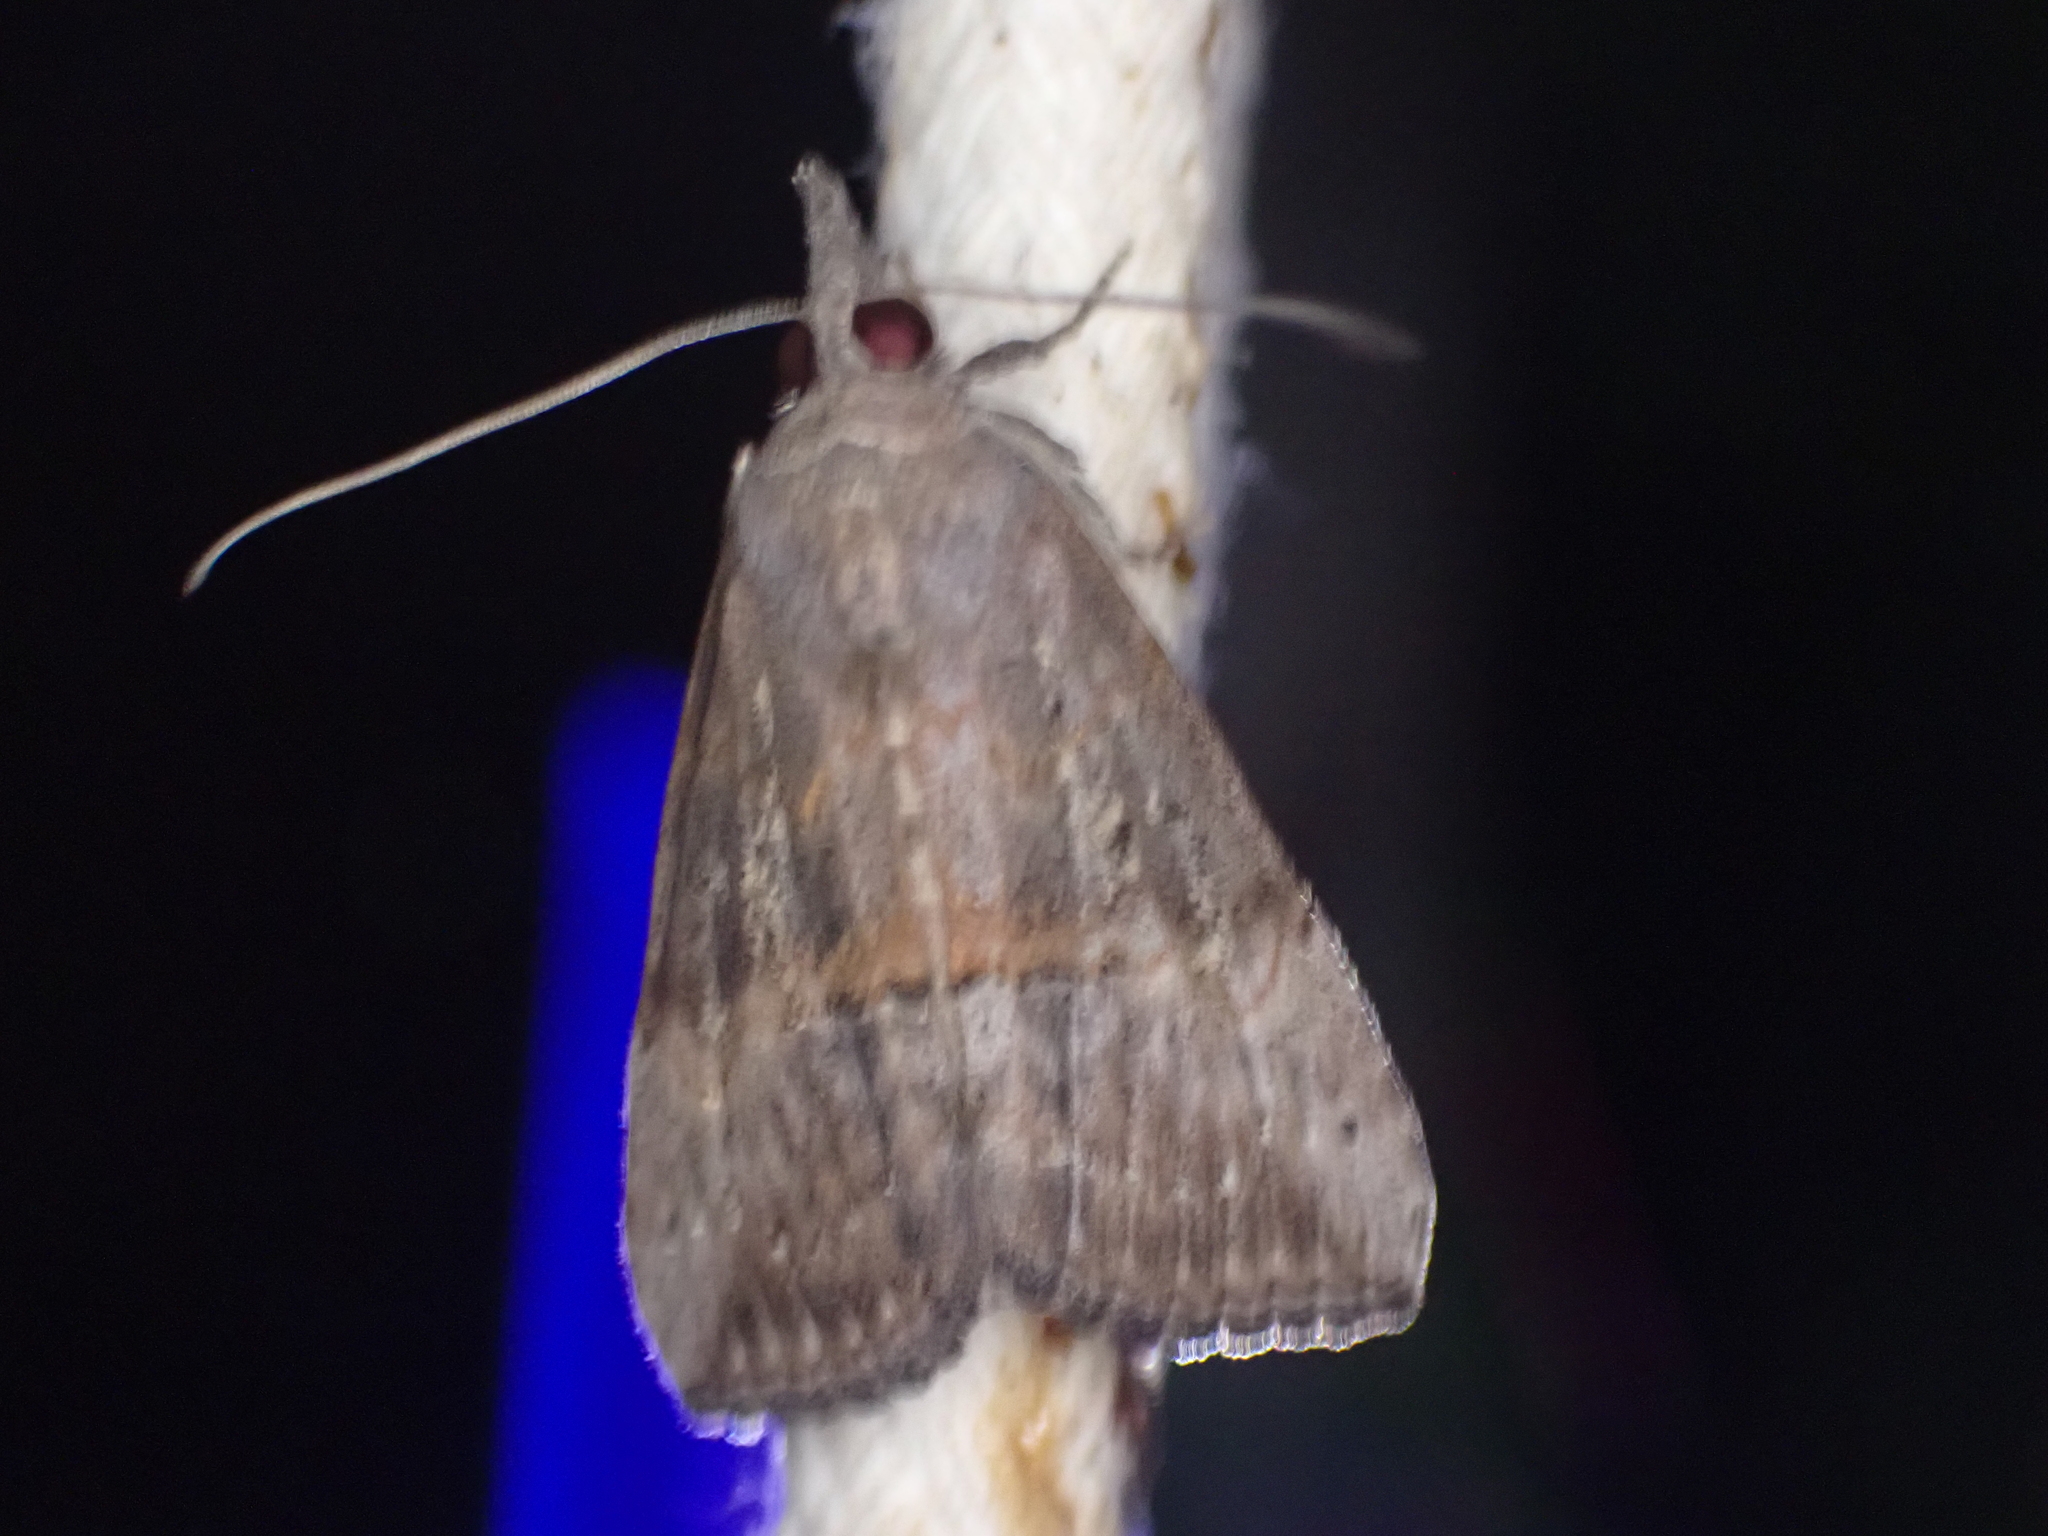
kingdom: Animalia
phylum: Arthropoda
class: Insecta
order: Lepidoptera
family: Erebidae
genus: Hypena
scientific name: Hypena scabra
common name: Green cloverworm
